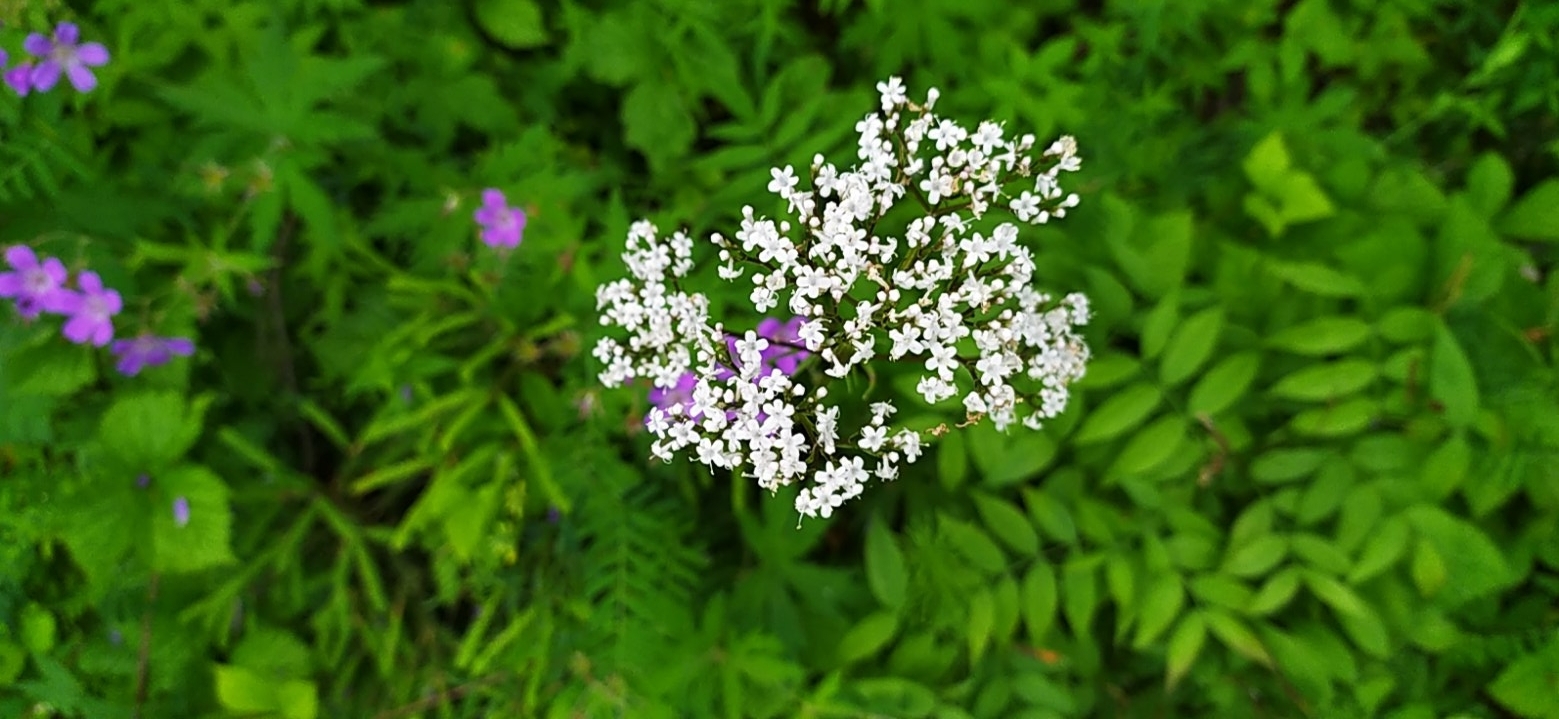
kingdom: Plantae
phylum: Tracheophyta
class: Magnoliopsida
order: Dipsacales
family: Caprifoliaceae
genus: Valeriana
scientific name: Valeriana officinalis
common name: Common valerian
